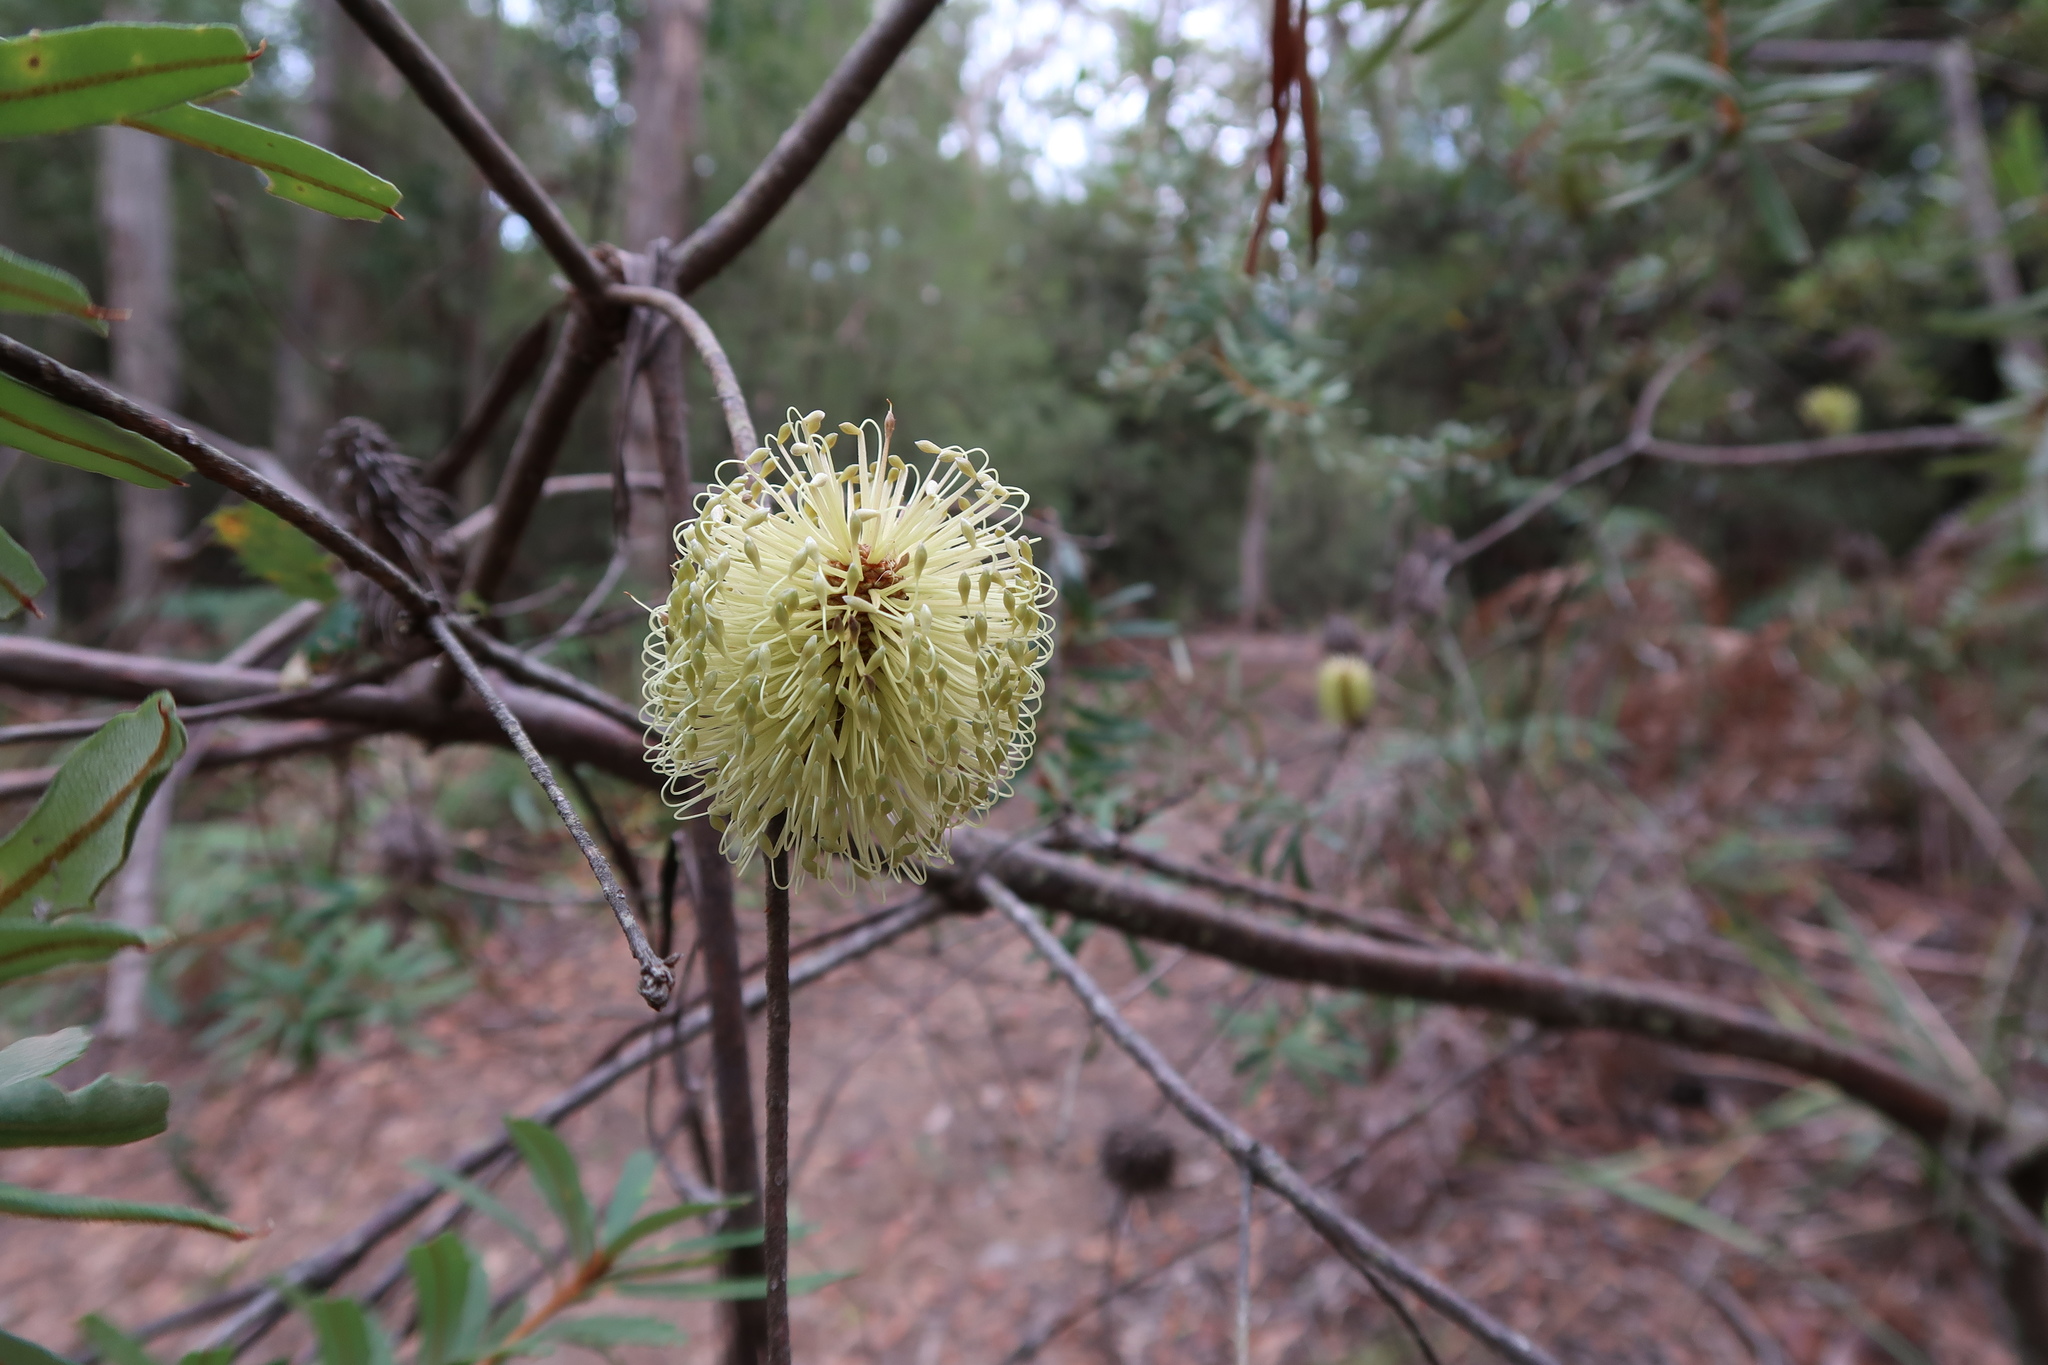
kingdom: Plantae
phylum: Tracheophyta
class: Magnoliopsida
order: Proteales
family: Proteaceae
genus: Banksia
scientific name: Banksia marginata
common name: Silver banksia
